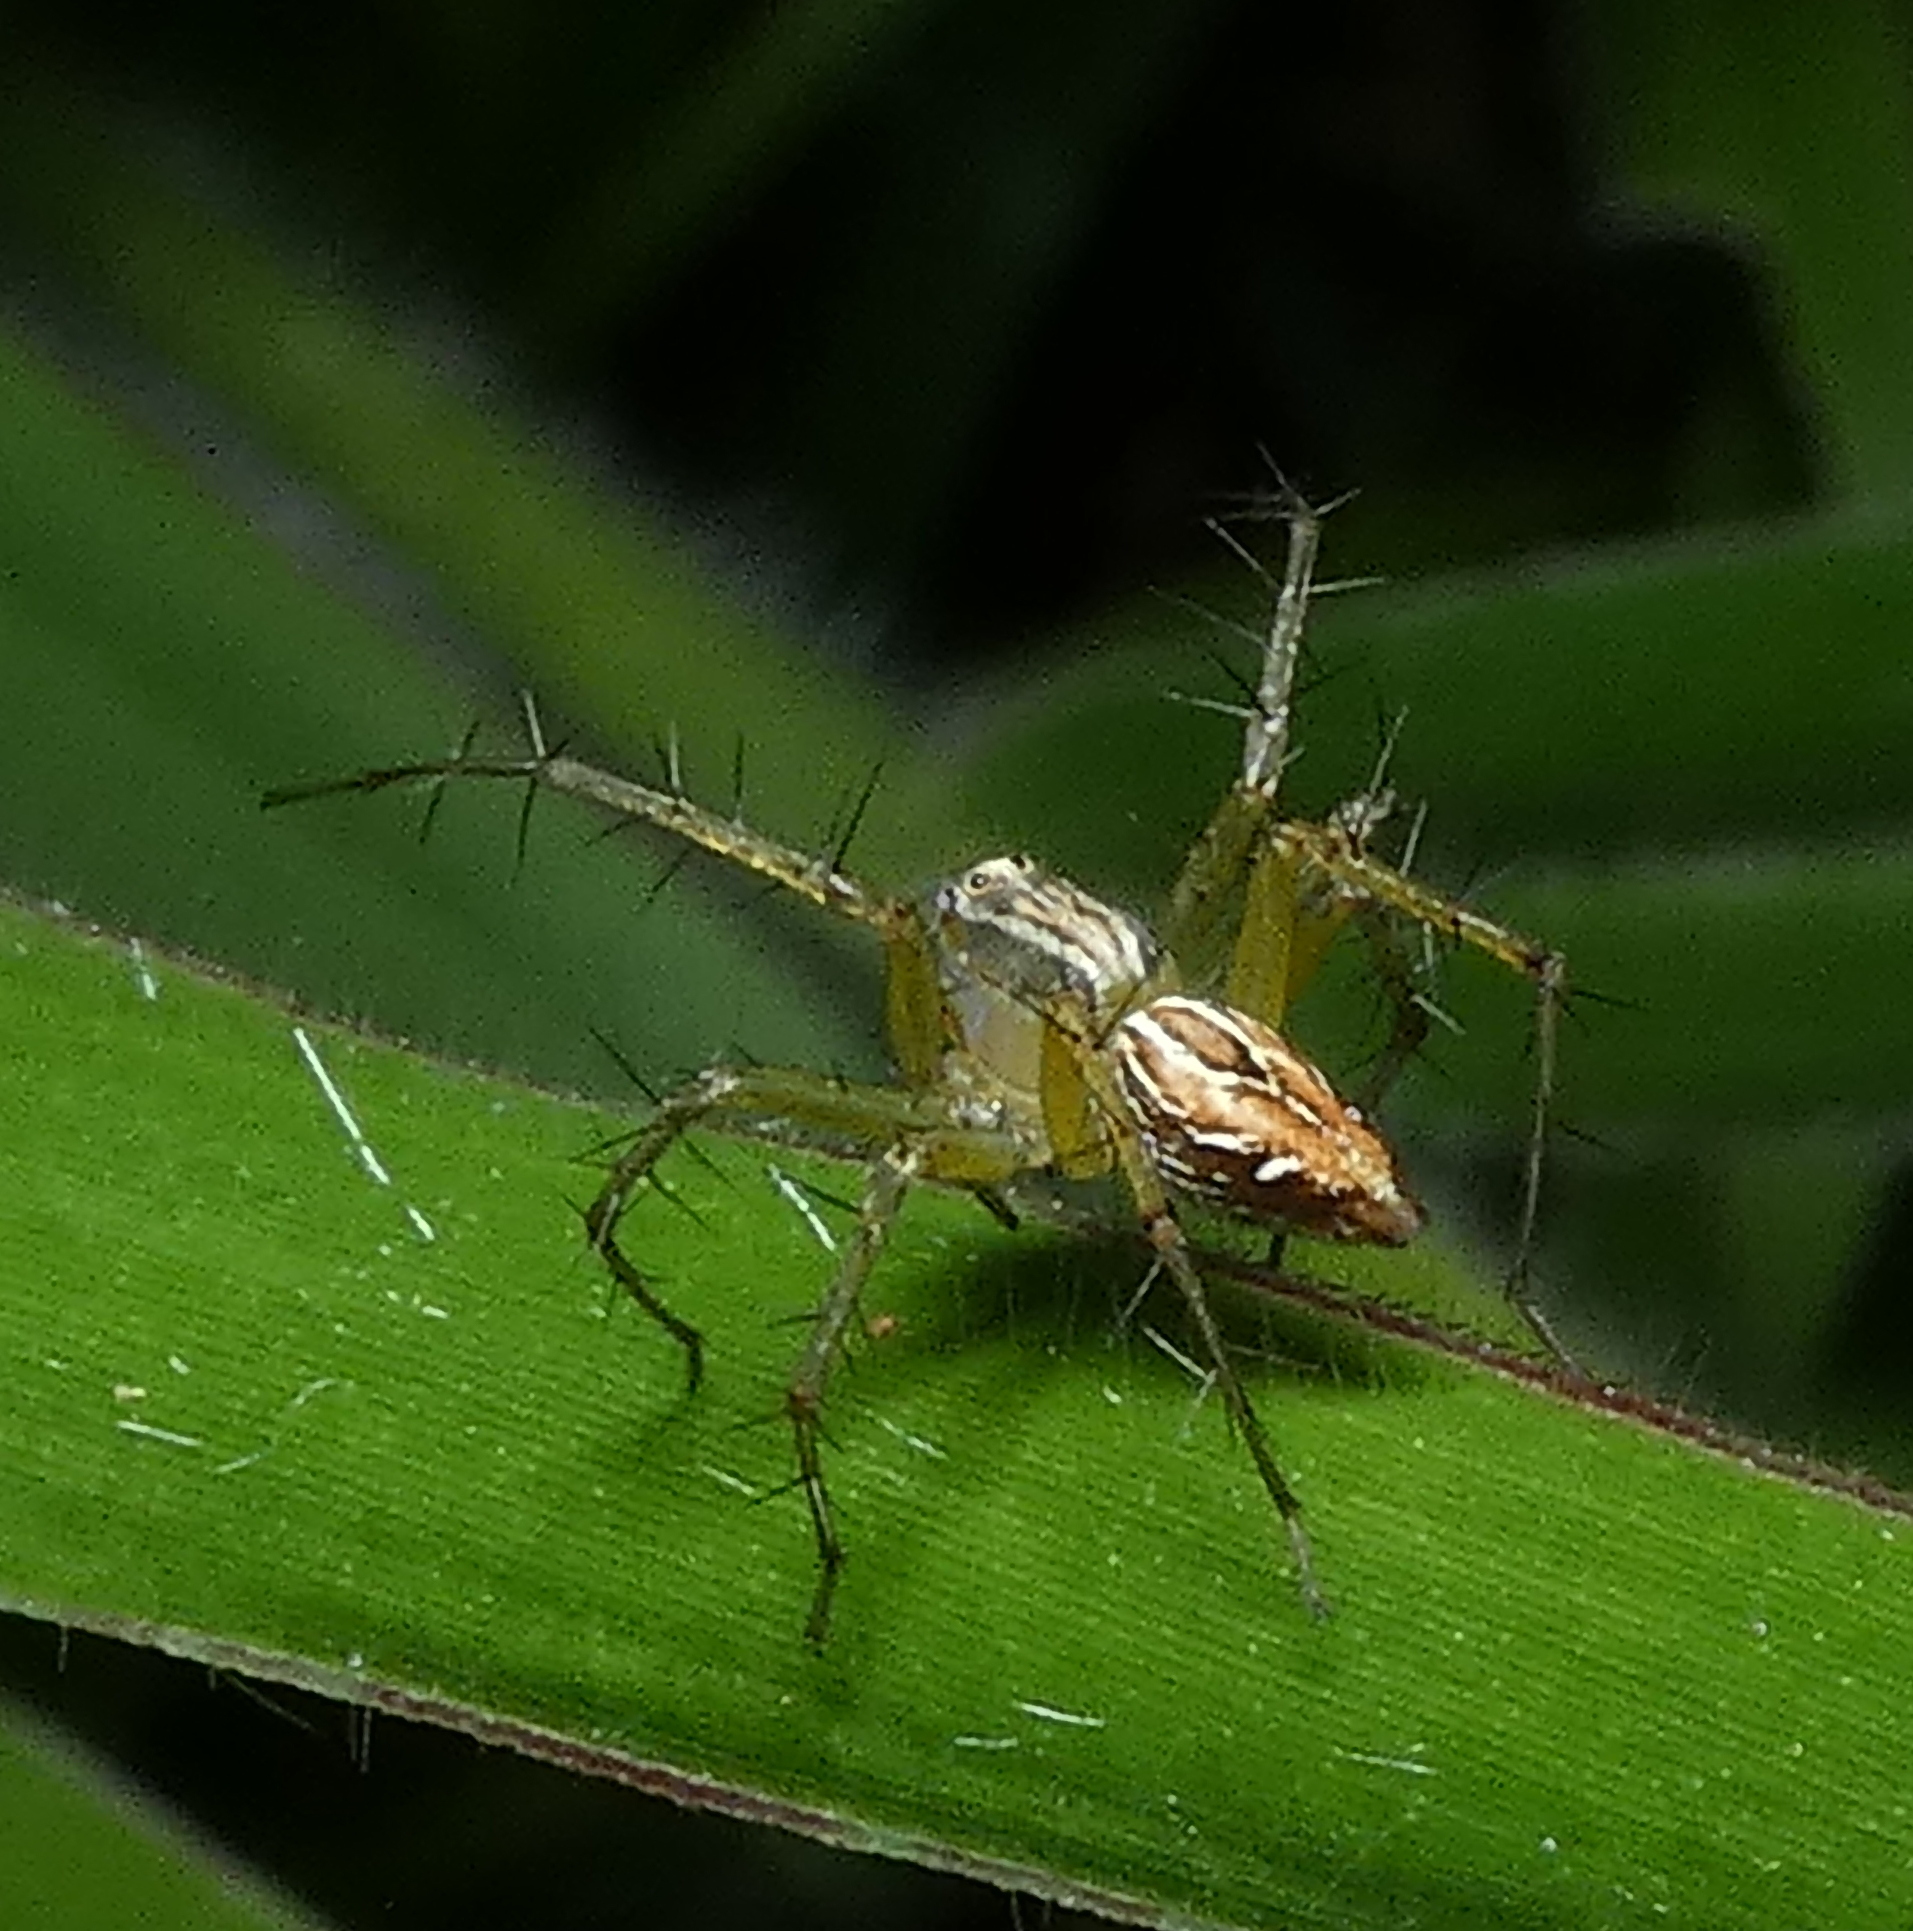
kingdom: Animalia
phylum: Arthropoda
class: Arachnida
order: Araneae
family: Oxyopidae
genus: Oxyopes
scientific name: Oxyopes salticus
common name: Lynx spiders
